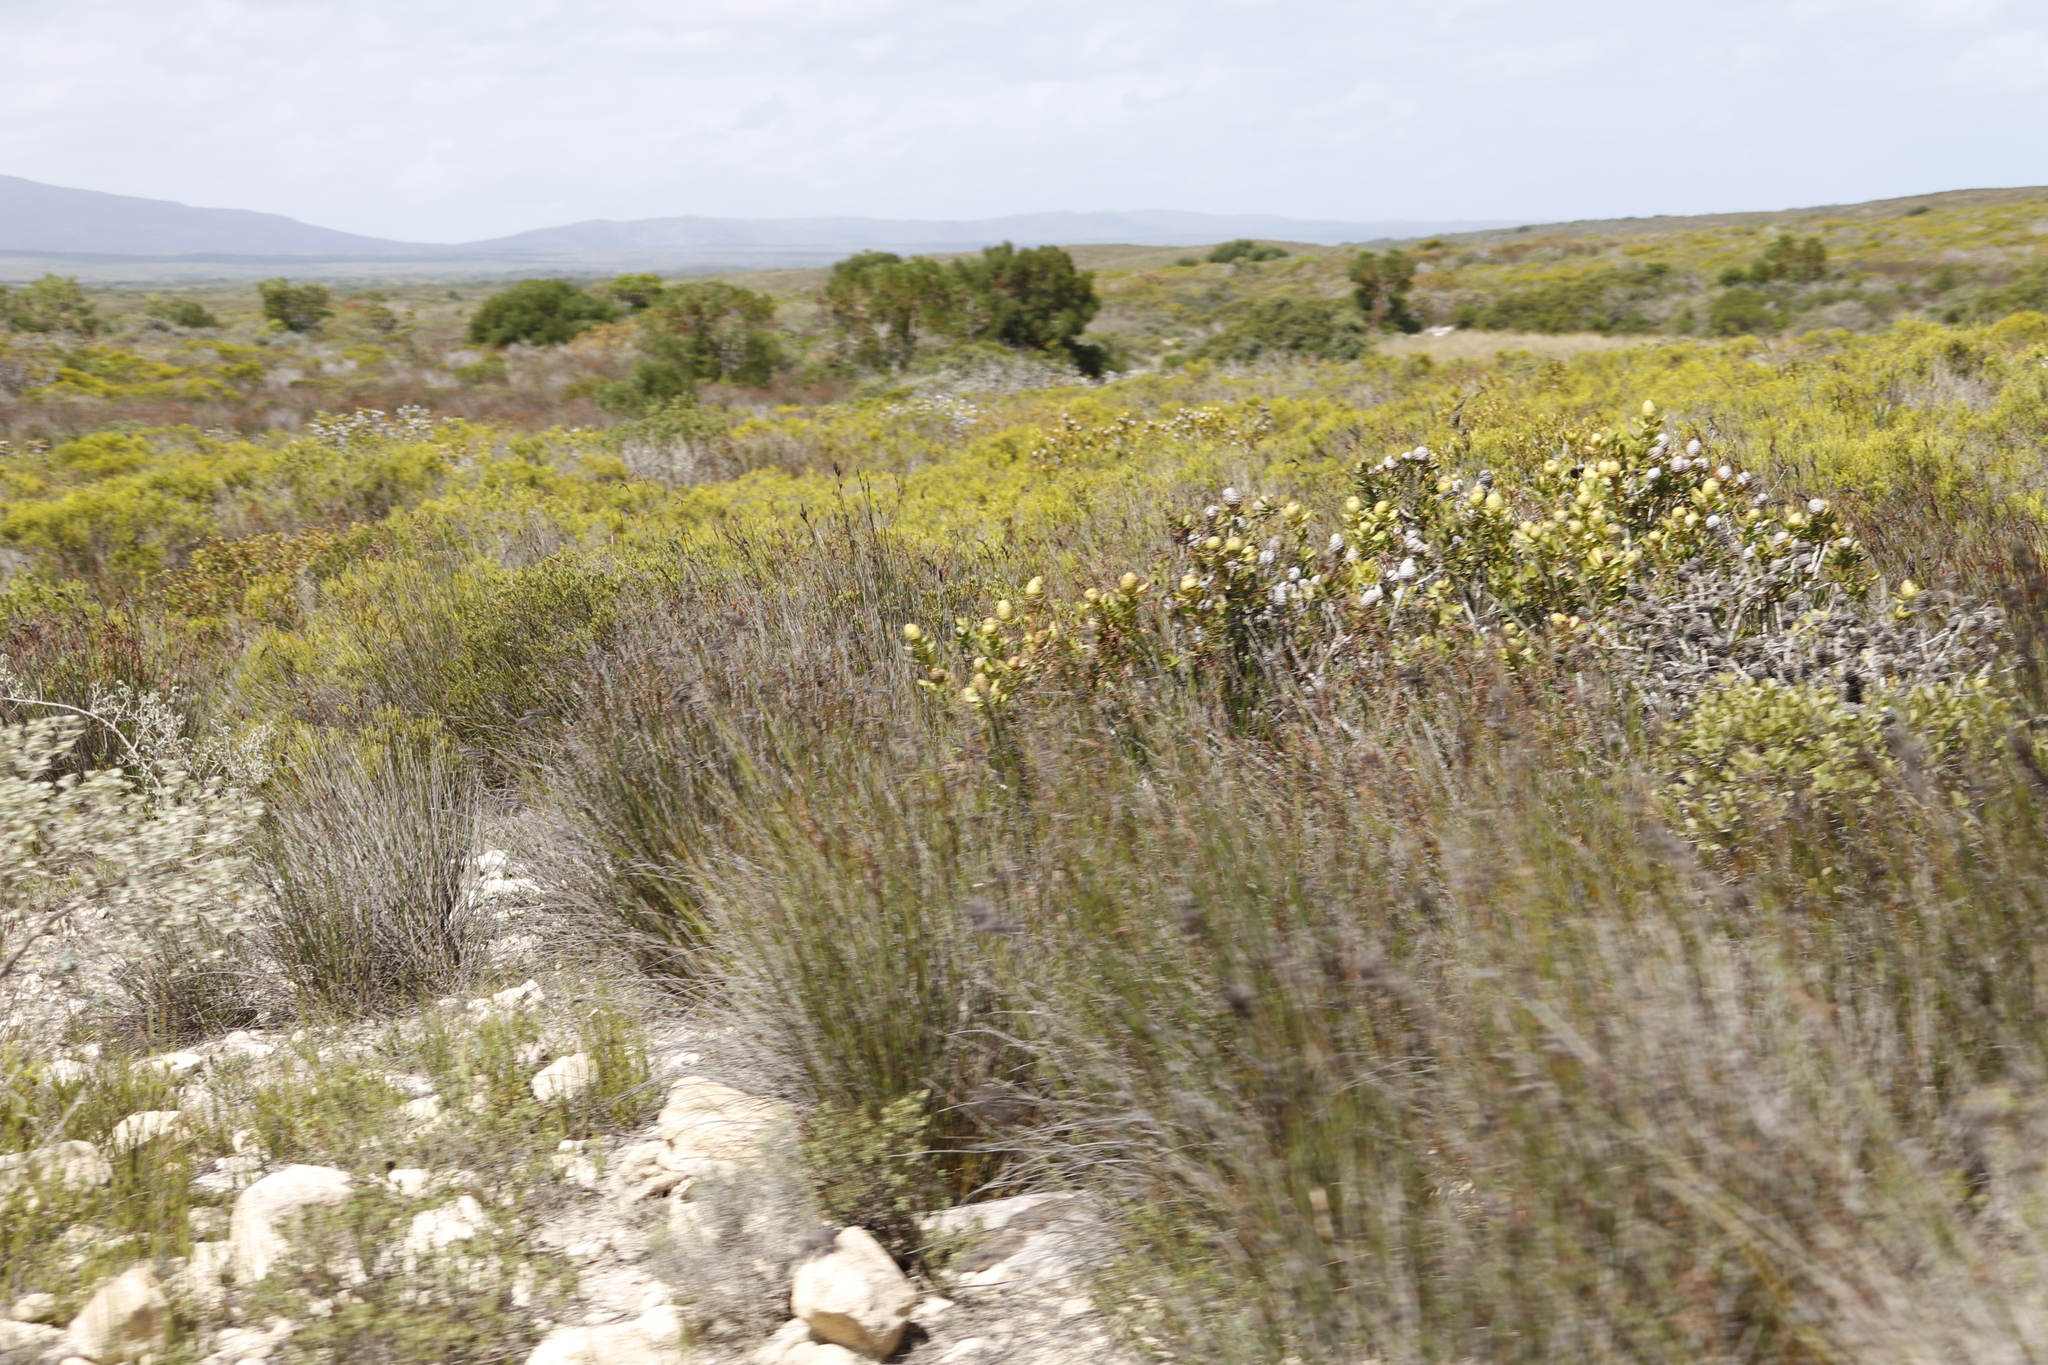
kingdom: Plantae
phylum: Tracheophyta
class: Magnoliopsida
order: Proteales
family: Proteaceae
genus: Leucadendron
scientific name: Leucadendron muirii
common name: Silver-ball conebush
